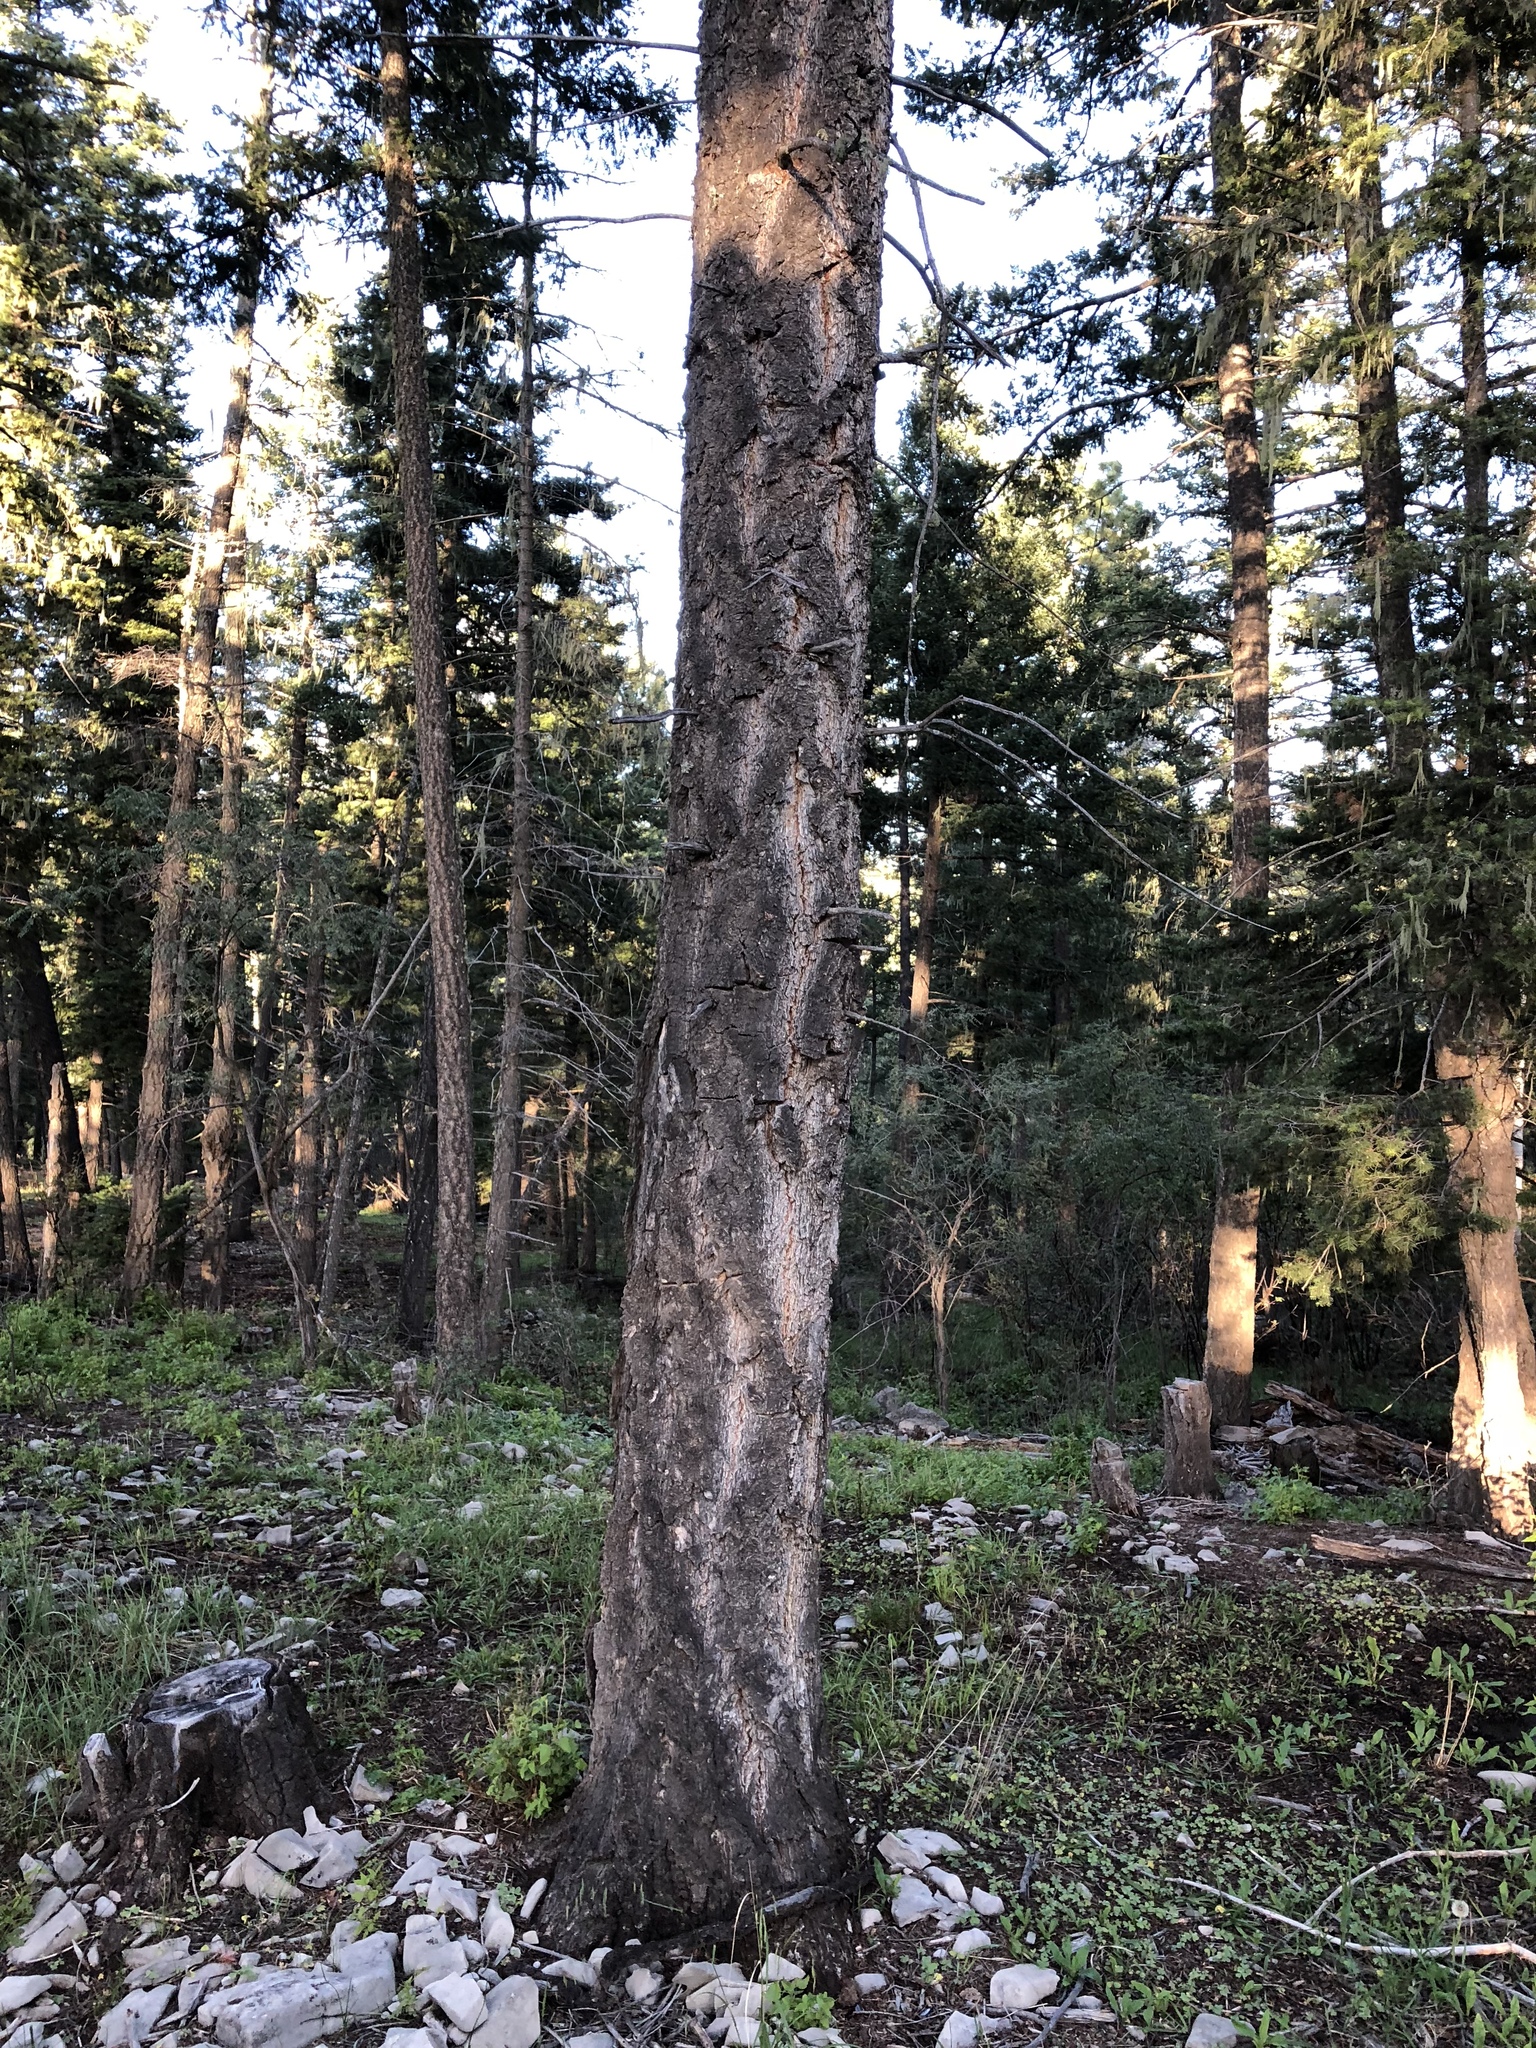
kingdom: Plantae
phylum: Tracheophyta
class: Pinopsida
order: Pinales
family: Pinaceae
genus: Pseudotsuga
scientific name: Pseudotsuga menziesii
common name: Douglas fir
